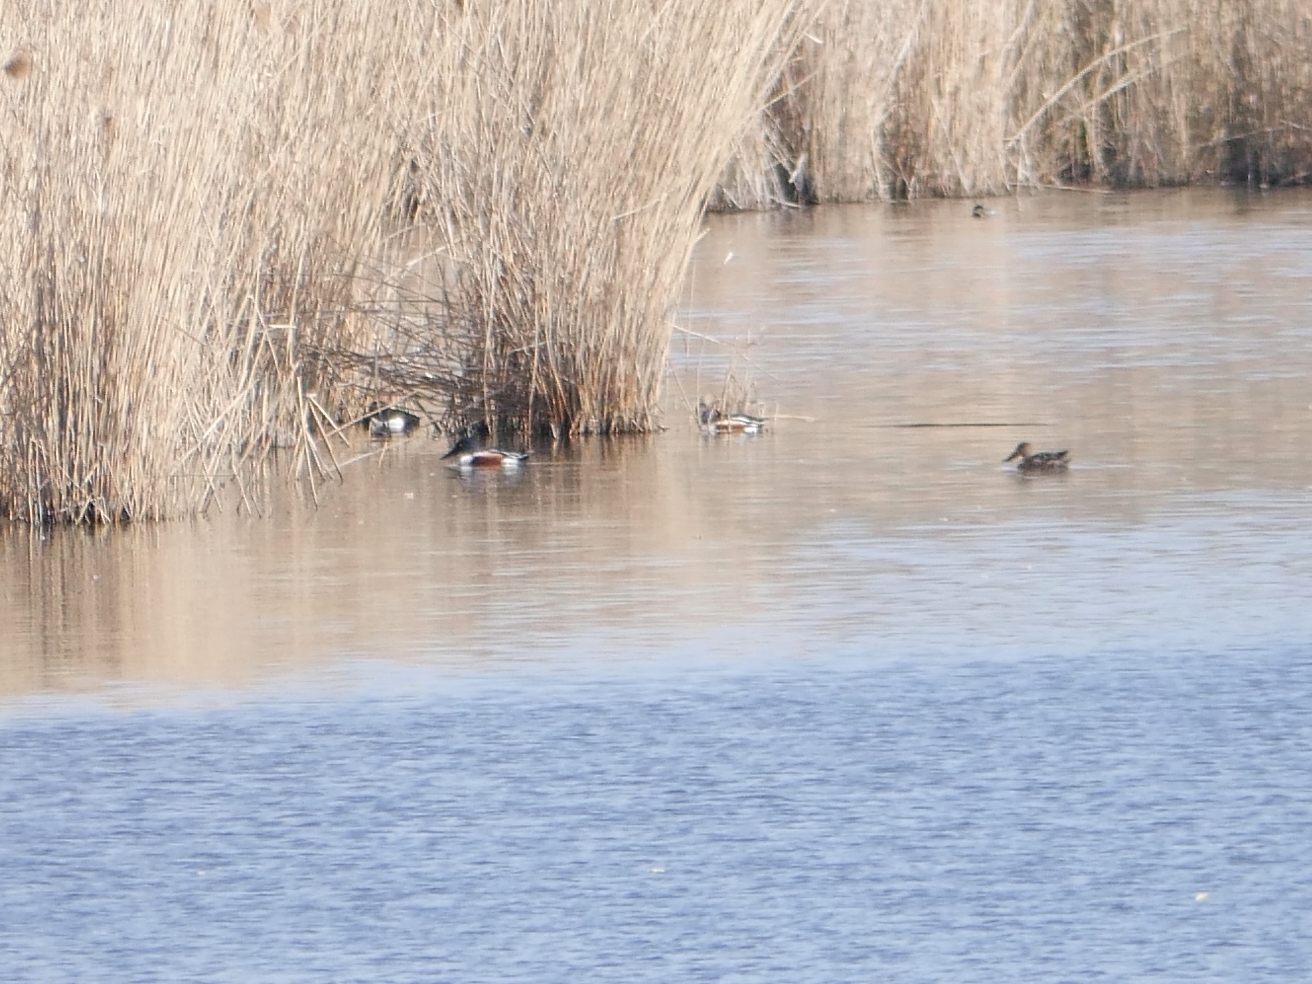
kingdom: Animalia
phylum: Chordata
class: Aves
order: Anseriformes
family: Anatidae
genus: Spatula
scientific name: Spatula clypeata
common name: Northern shoveler
